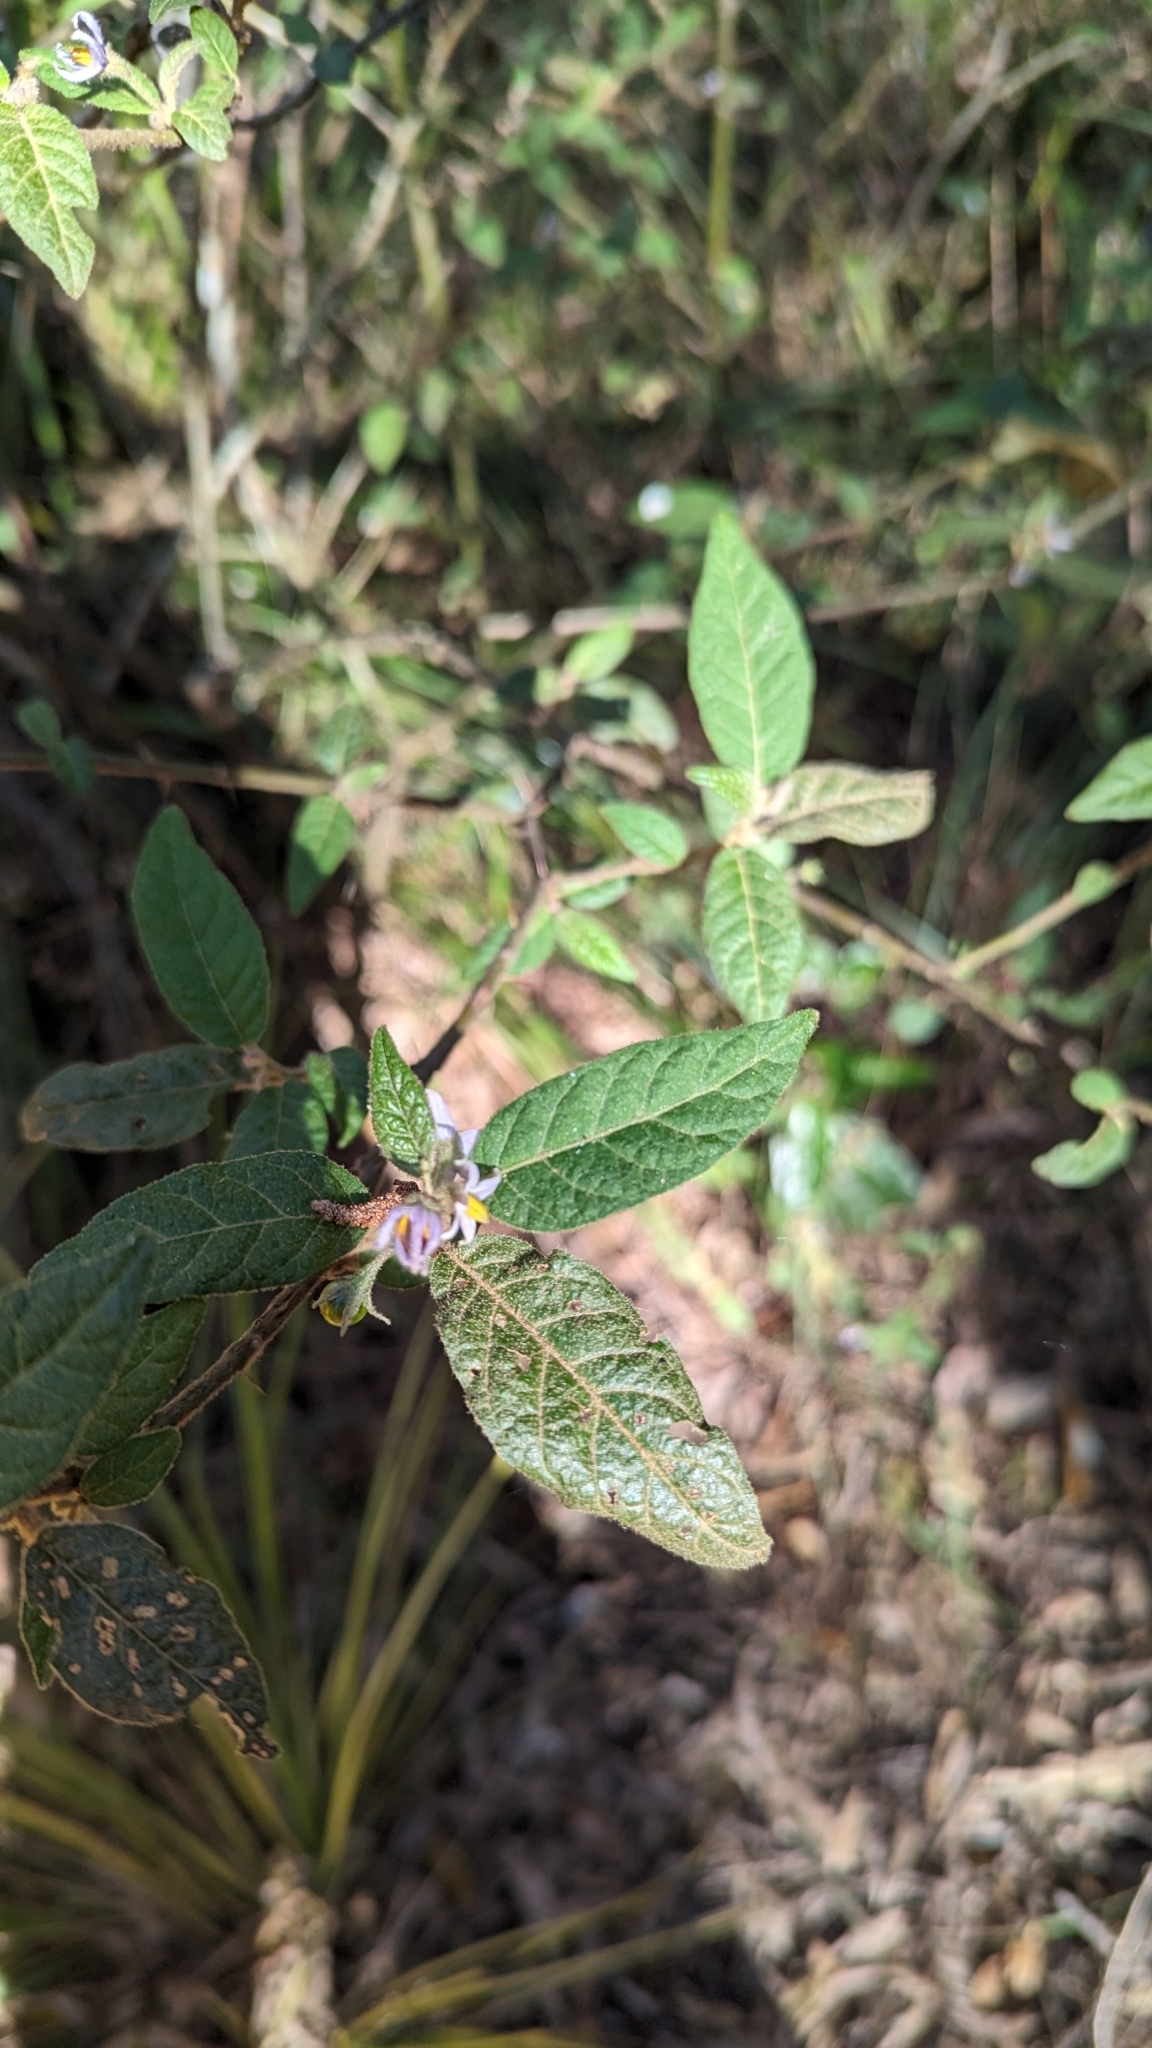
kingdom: Plantae
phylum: Tracheophyta
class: Magnoliopsida
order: Solanales
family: Solanaceae
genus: Solanum
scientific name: Solanum stelligerum
